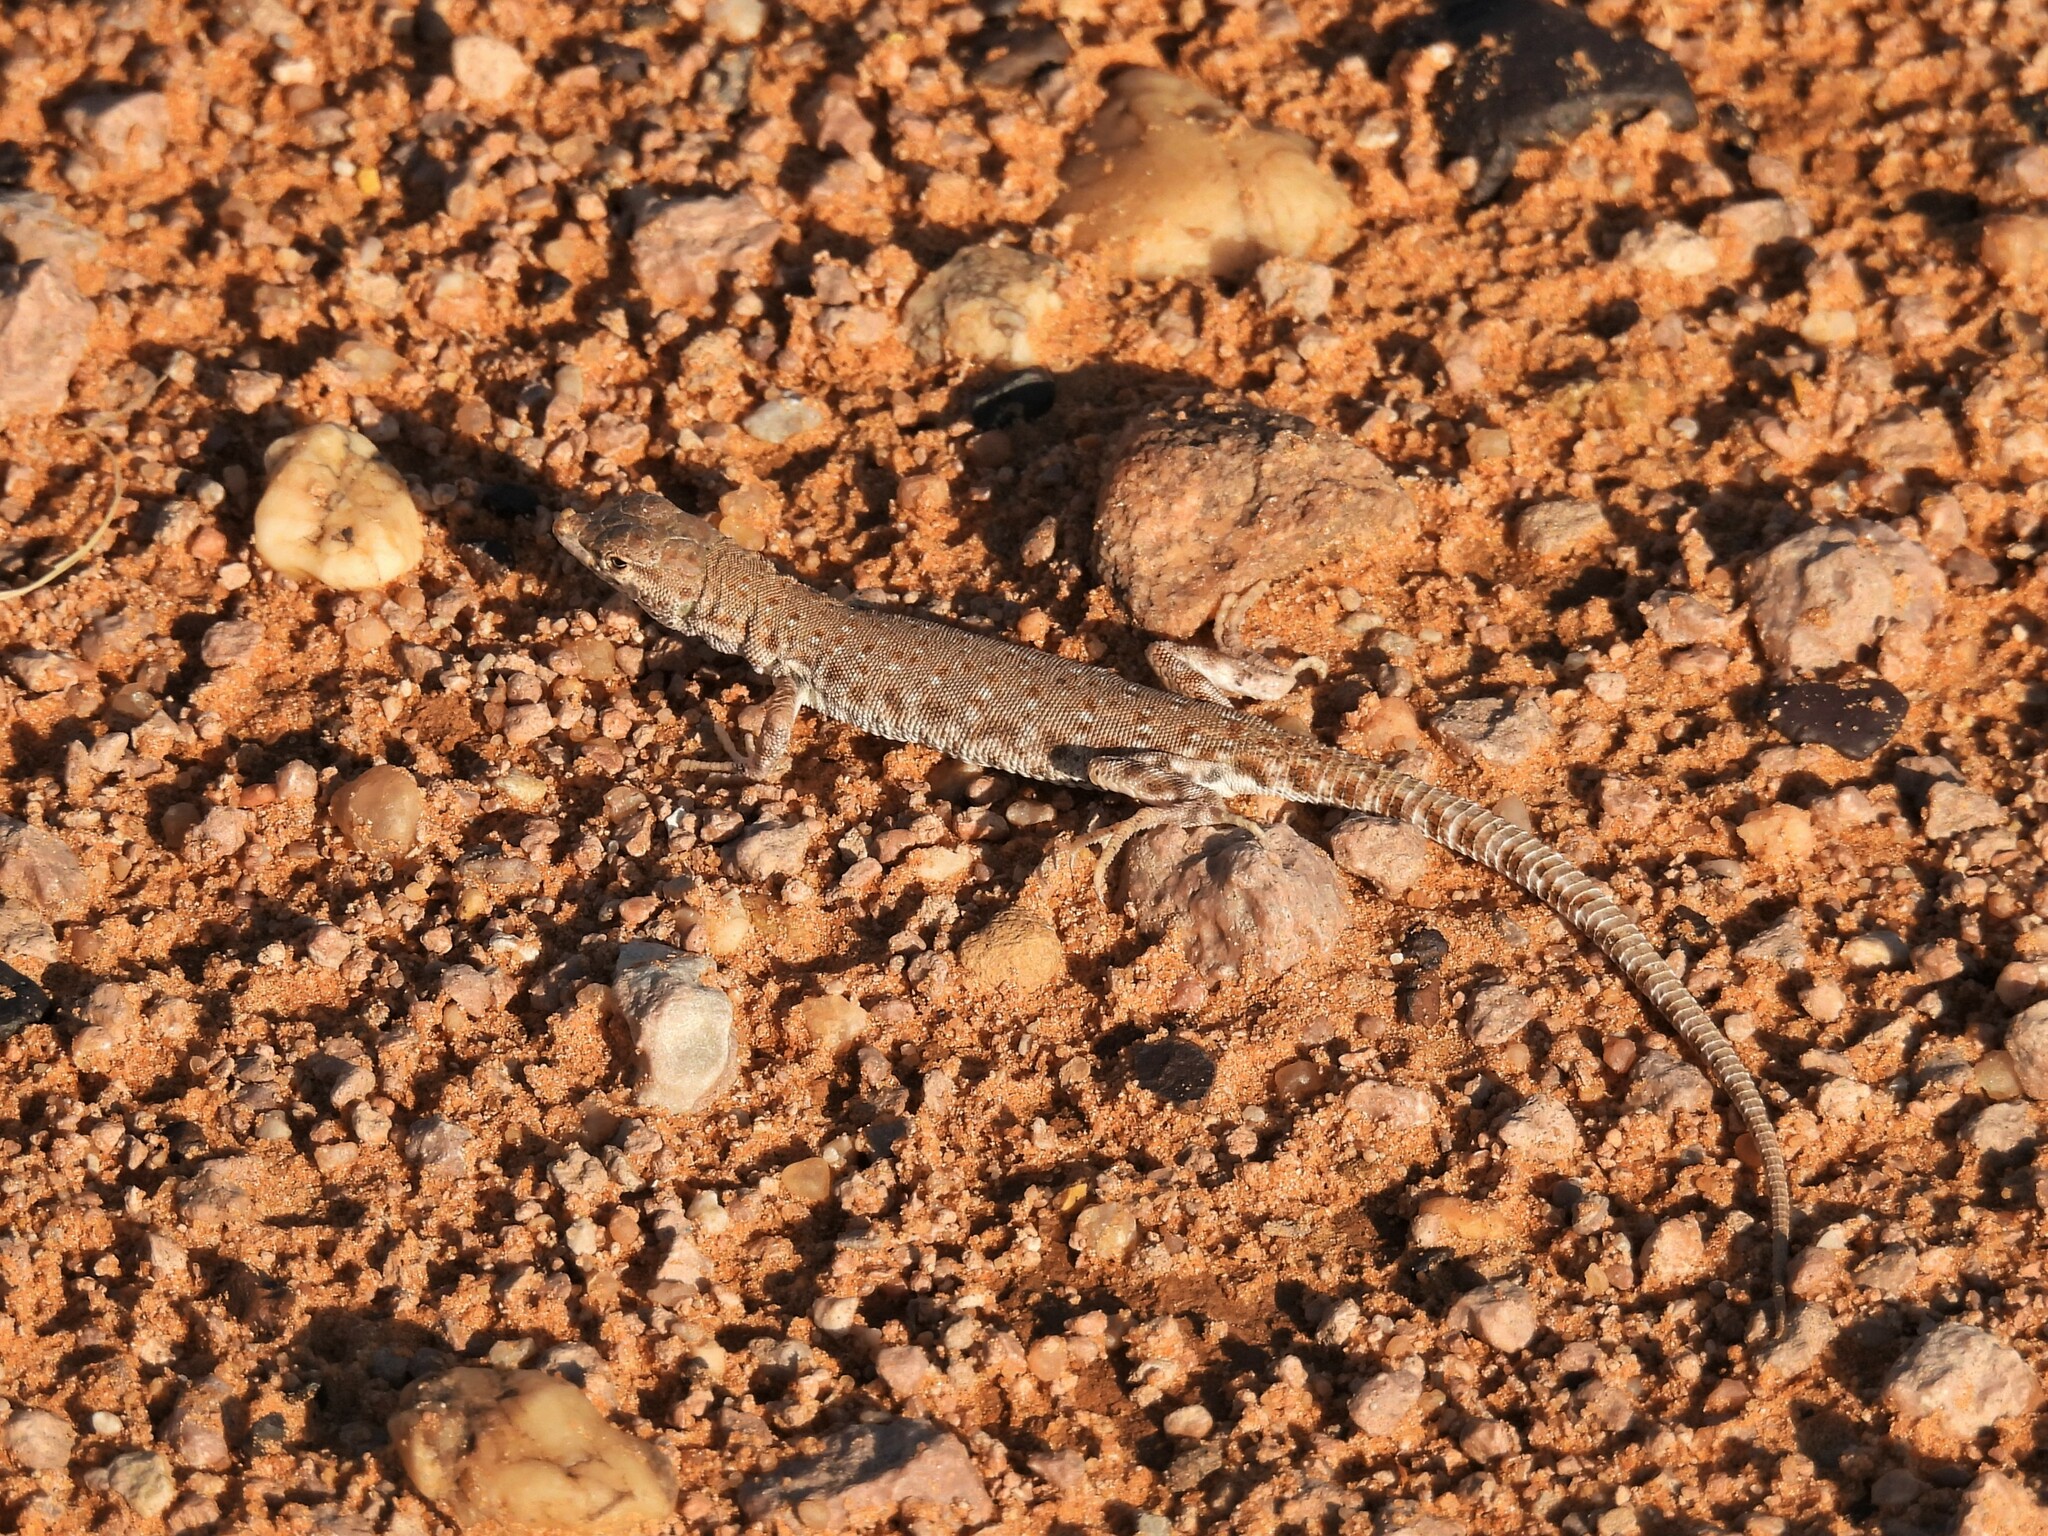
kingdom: Animalia
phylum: Chordata
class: Squamata
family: Lacertidae
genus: Mesalina
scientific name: Mesalina brevirostris
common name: Blanford's short-nosed desert lizard
